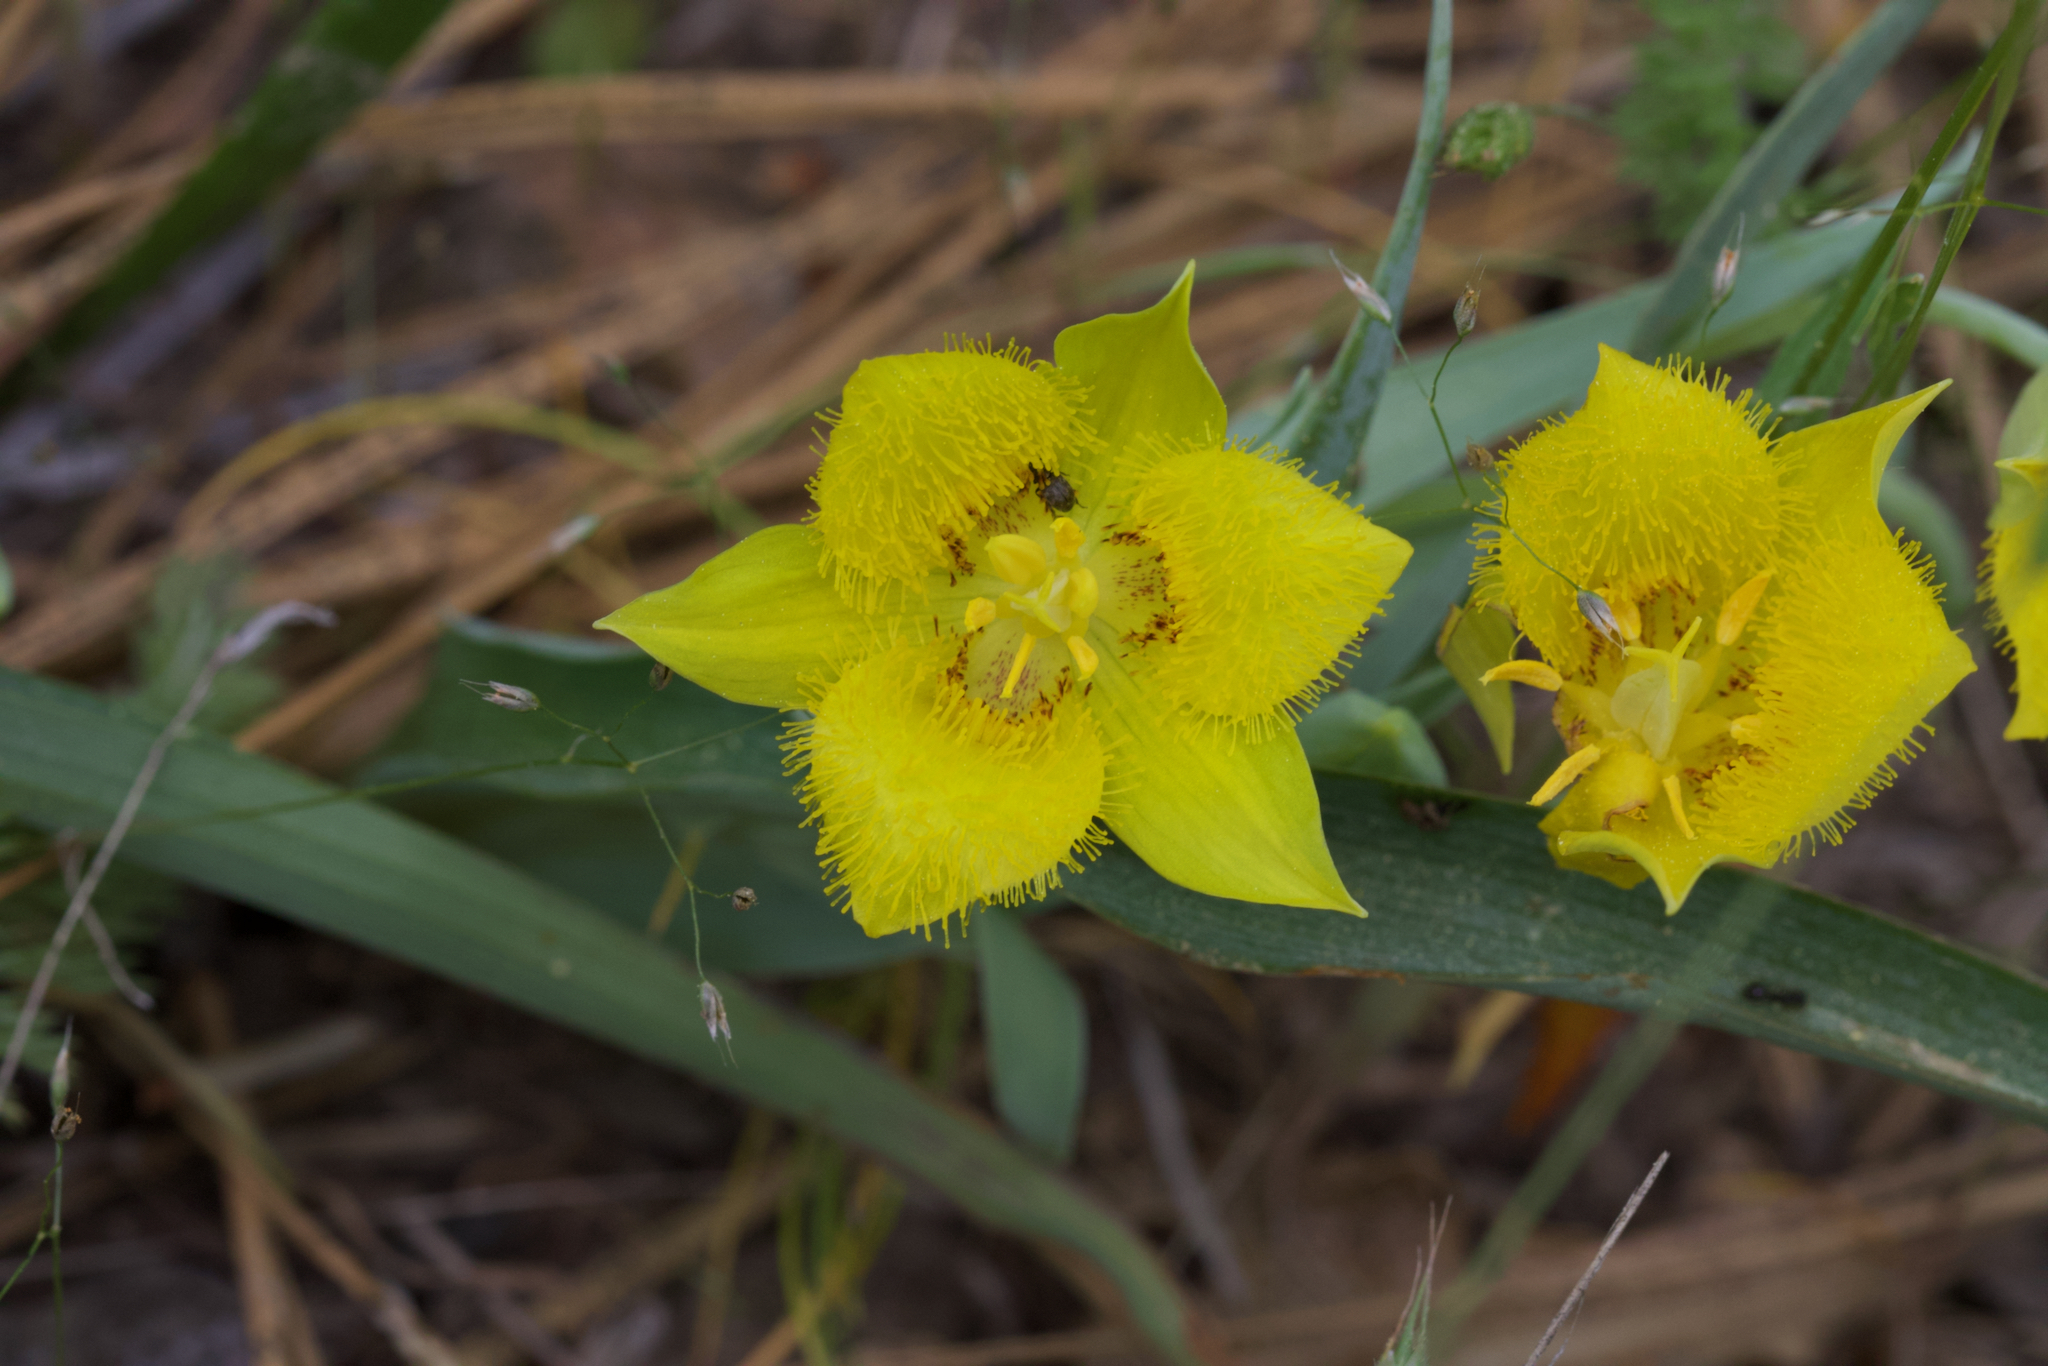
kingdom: Plantae
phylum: Tracheophyta
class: Liliopsida
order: Liliales
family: Liliaceae
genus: Calochortus
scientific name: Calochortus monophyllus
